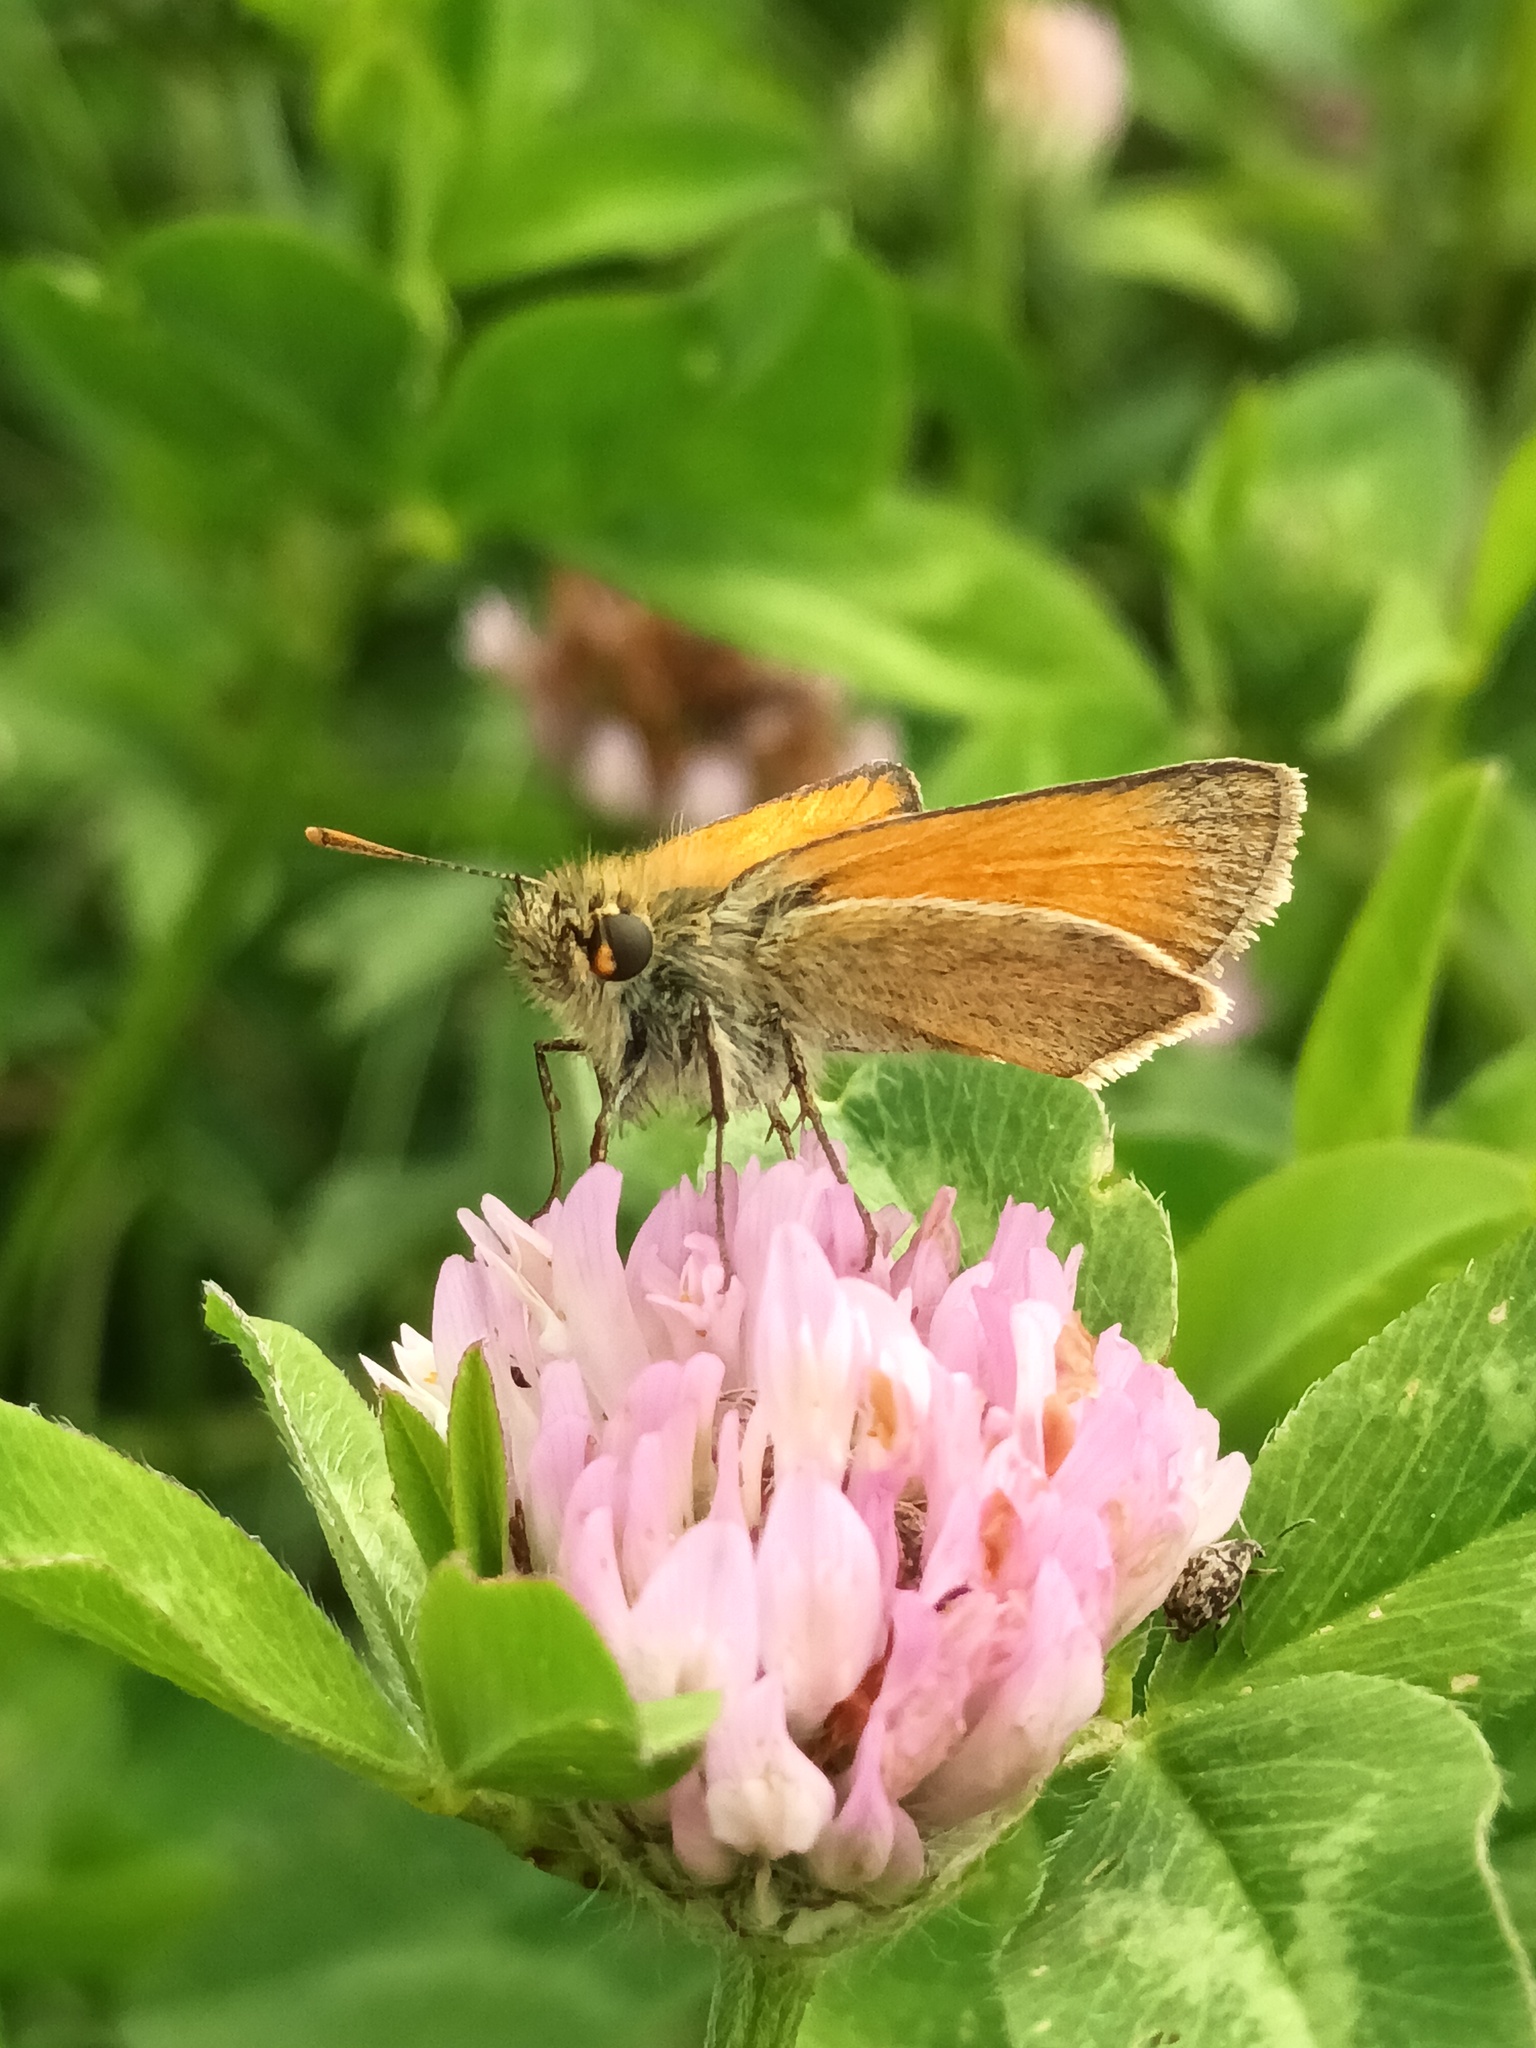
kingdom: Animalia
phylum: Arthropoda
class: Insecta
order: Lepidoptera
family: Hesperiidae
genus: Thymelicus
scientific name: Thymelicus sylvestris
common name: Small skipper
